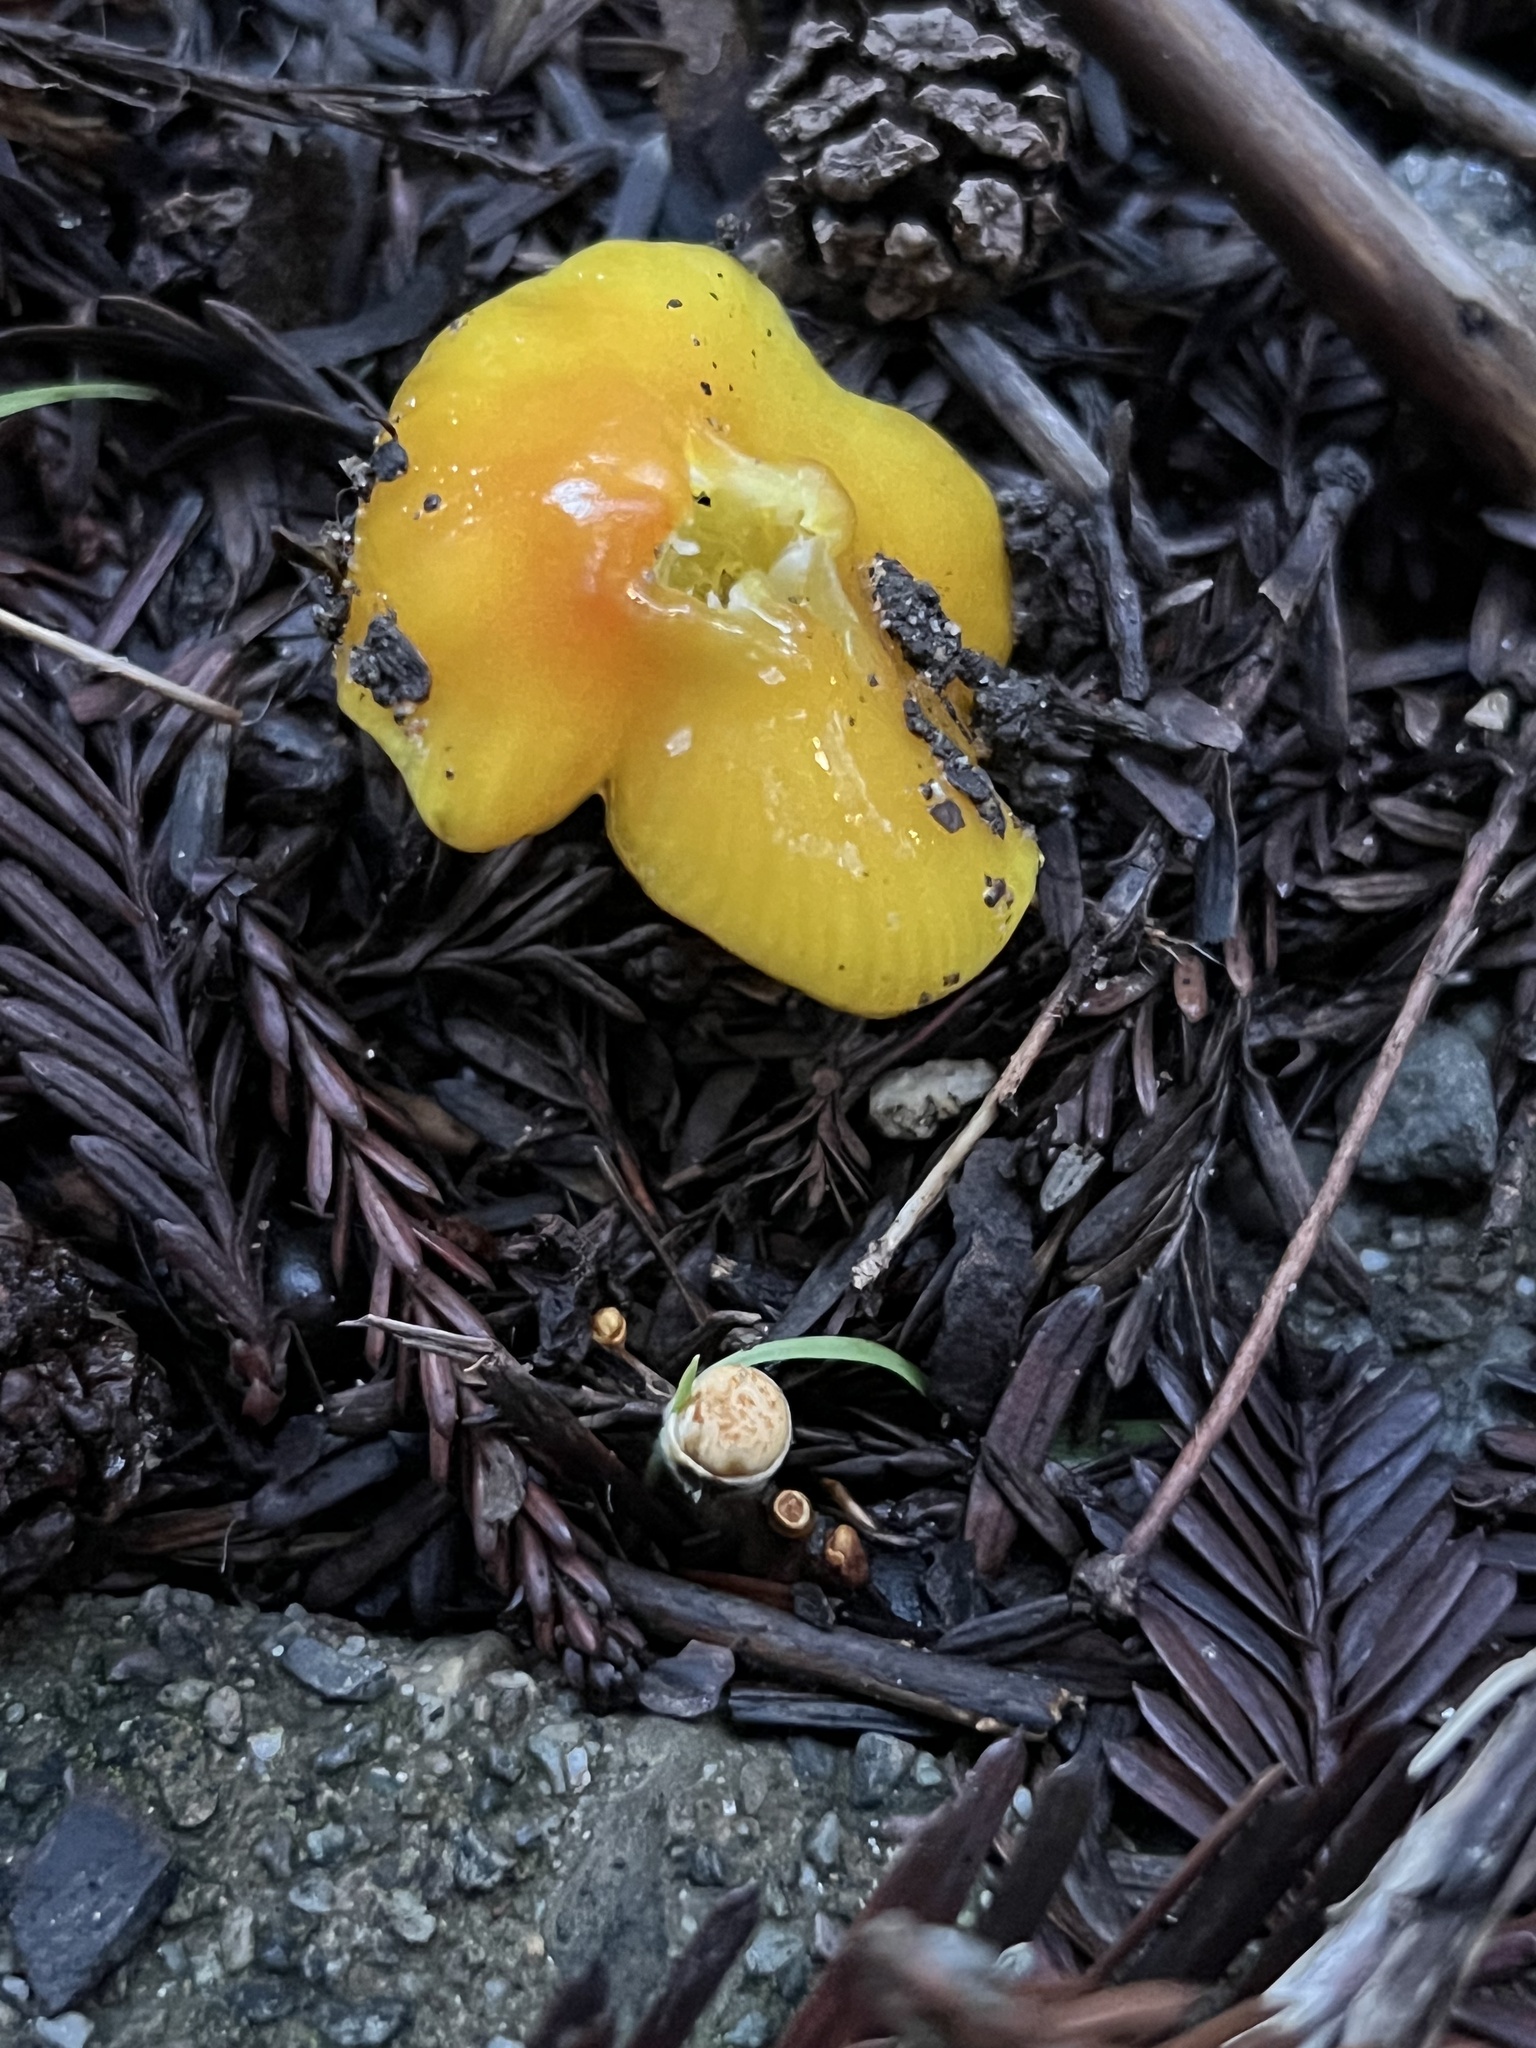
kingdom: Fungi
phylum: Basidiomycota
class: Agaricomycetes
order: Agaricales
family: Hygrophoraceae
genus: Hygrocybe
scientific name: Hygrocybe flavescens
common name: Golden waxy cap
